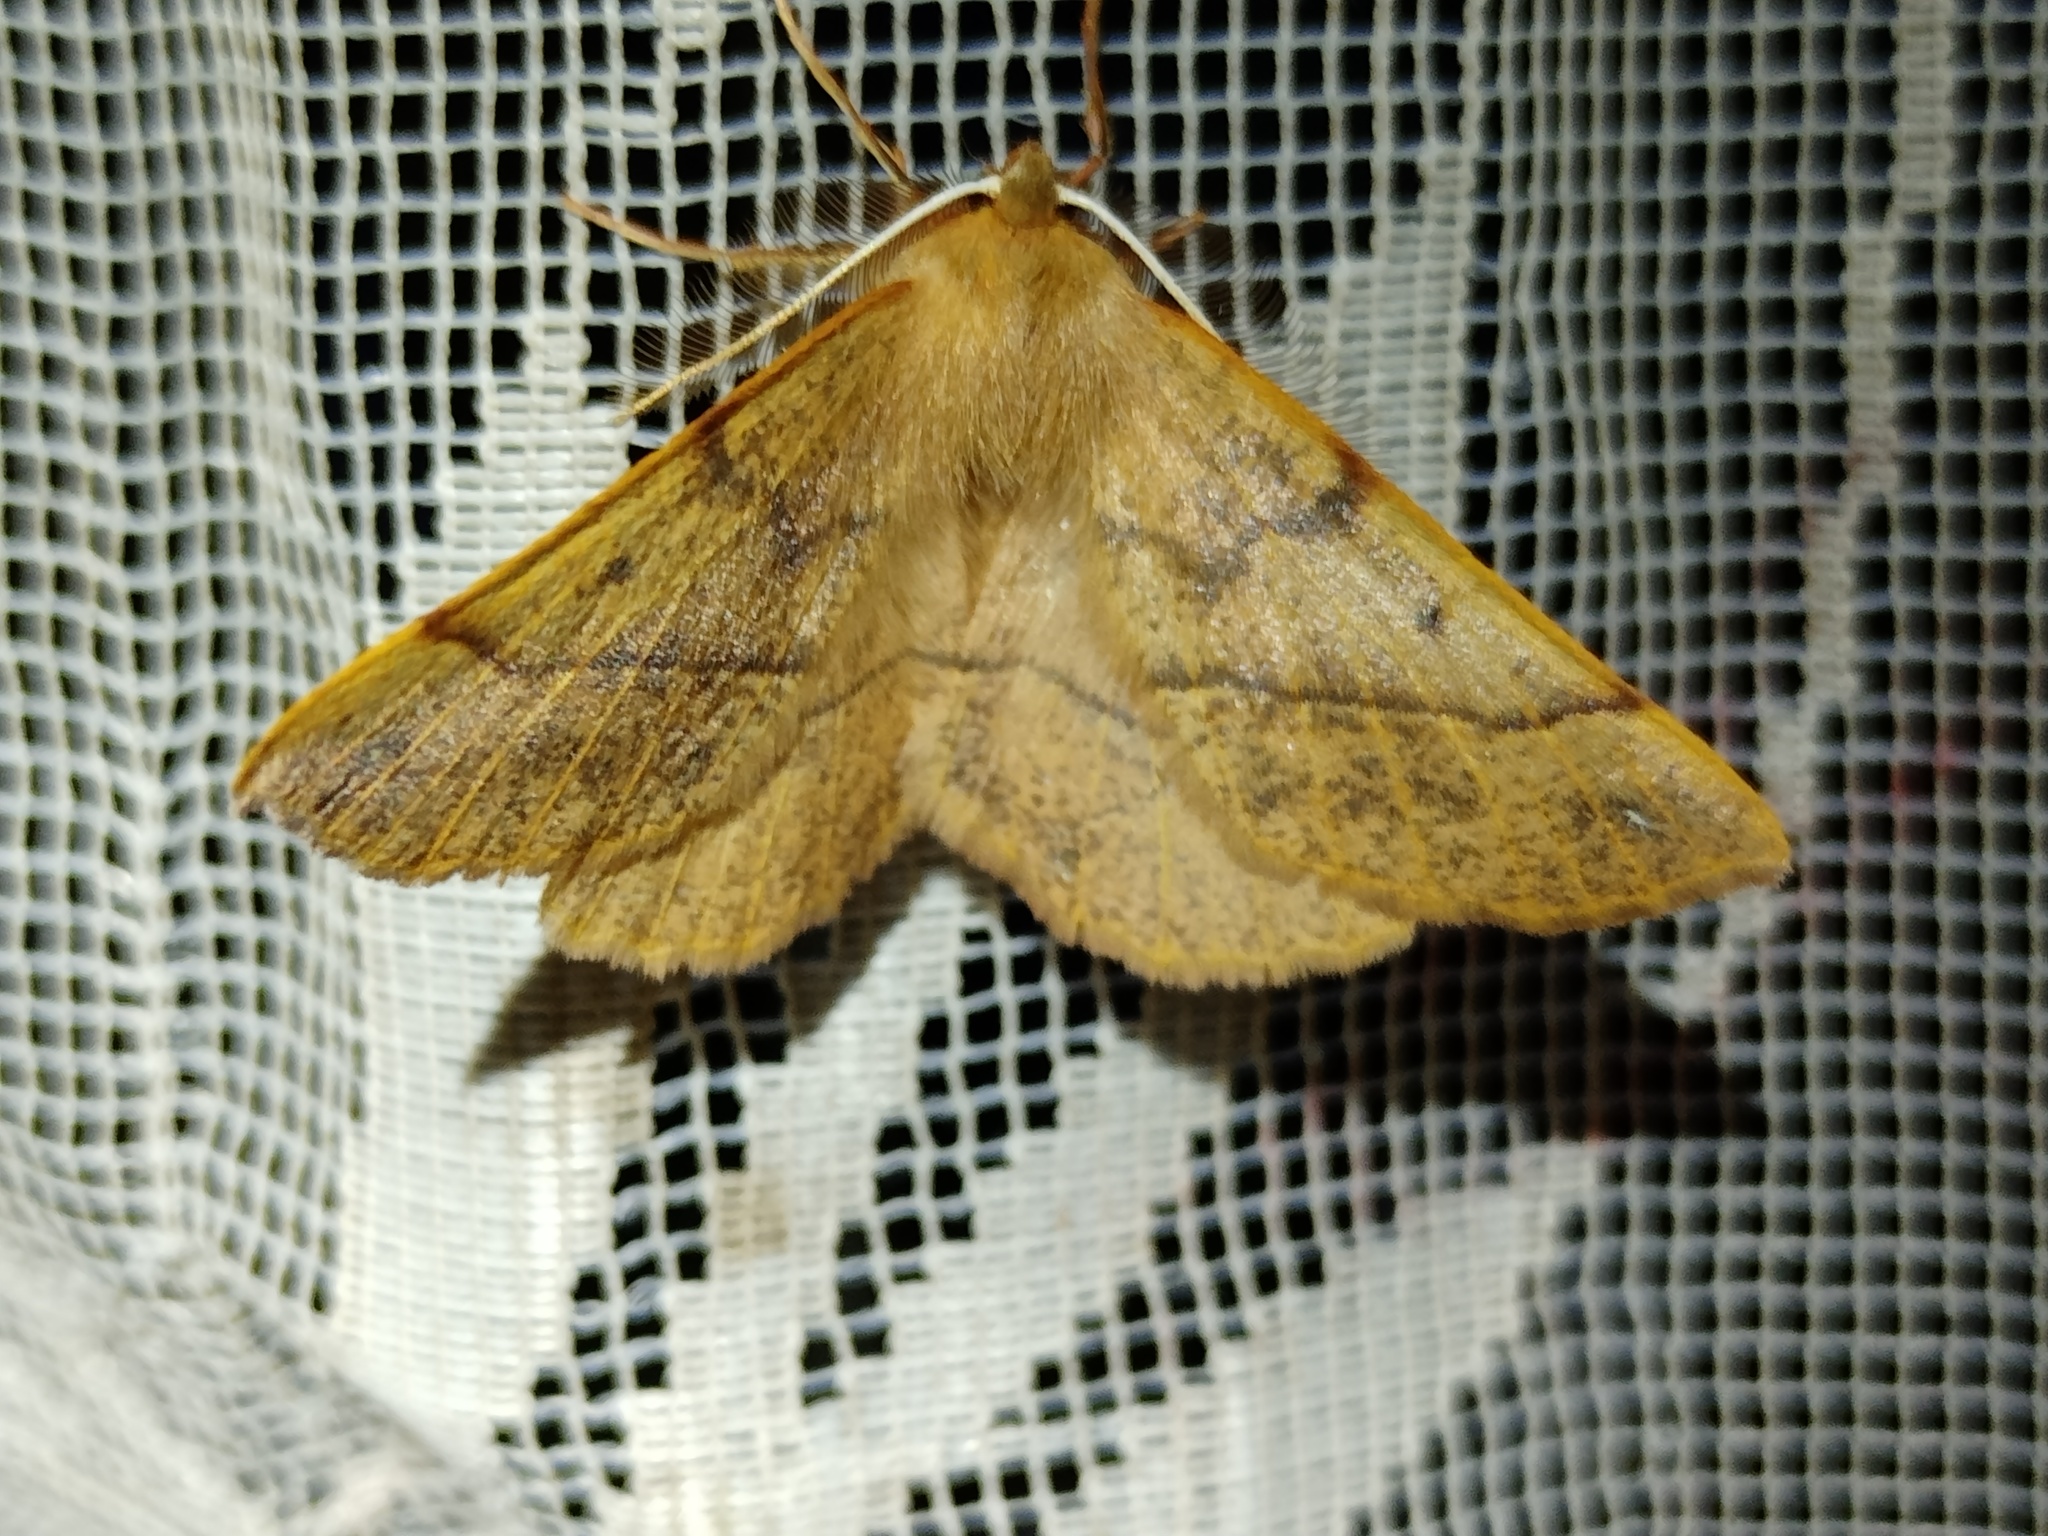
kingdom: Animalia
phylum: Arthropoda
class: Insecta
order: Lepidoptera
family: Geometridae
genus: Colotois
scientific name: Colotois pennaria
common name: Feathered thorn
